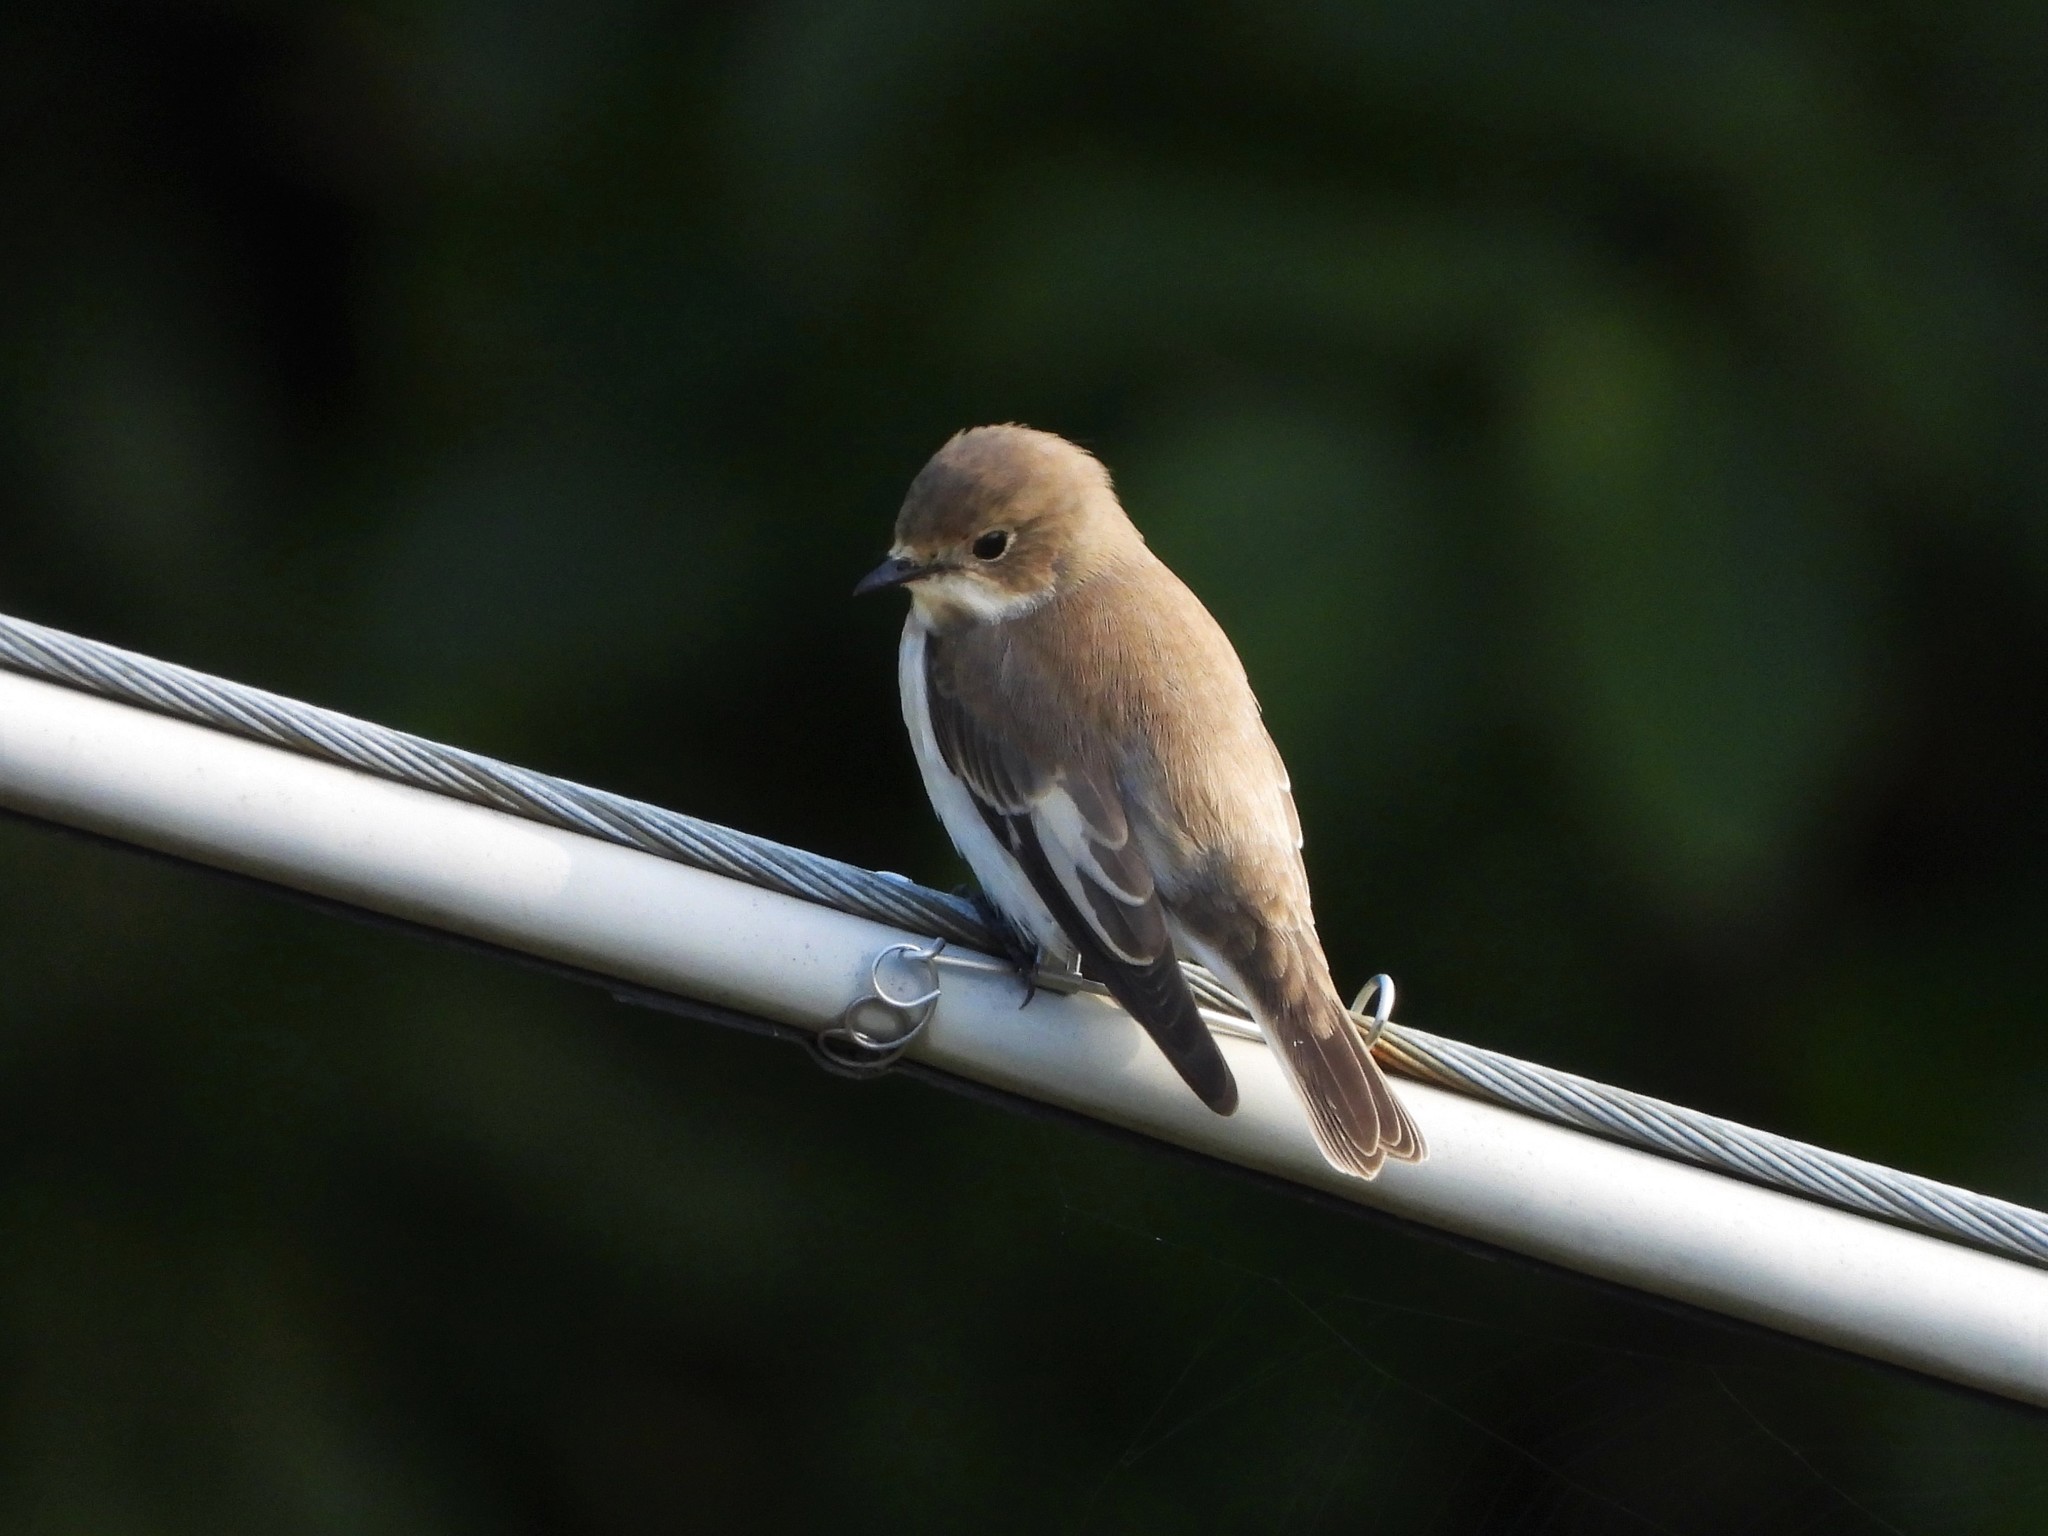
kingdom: Animalia
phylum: Chordata
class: Aves
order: Passeriformes
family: Muscicapidae
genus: Ficedula
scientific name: Ficedula hypoleuca
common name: European pied flycatcher
